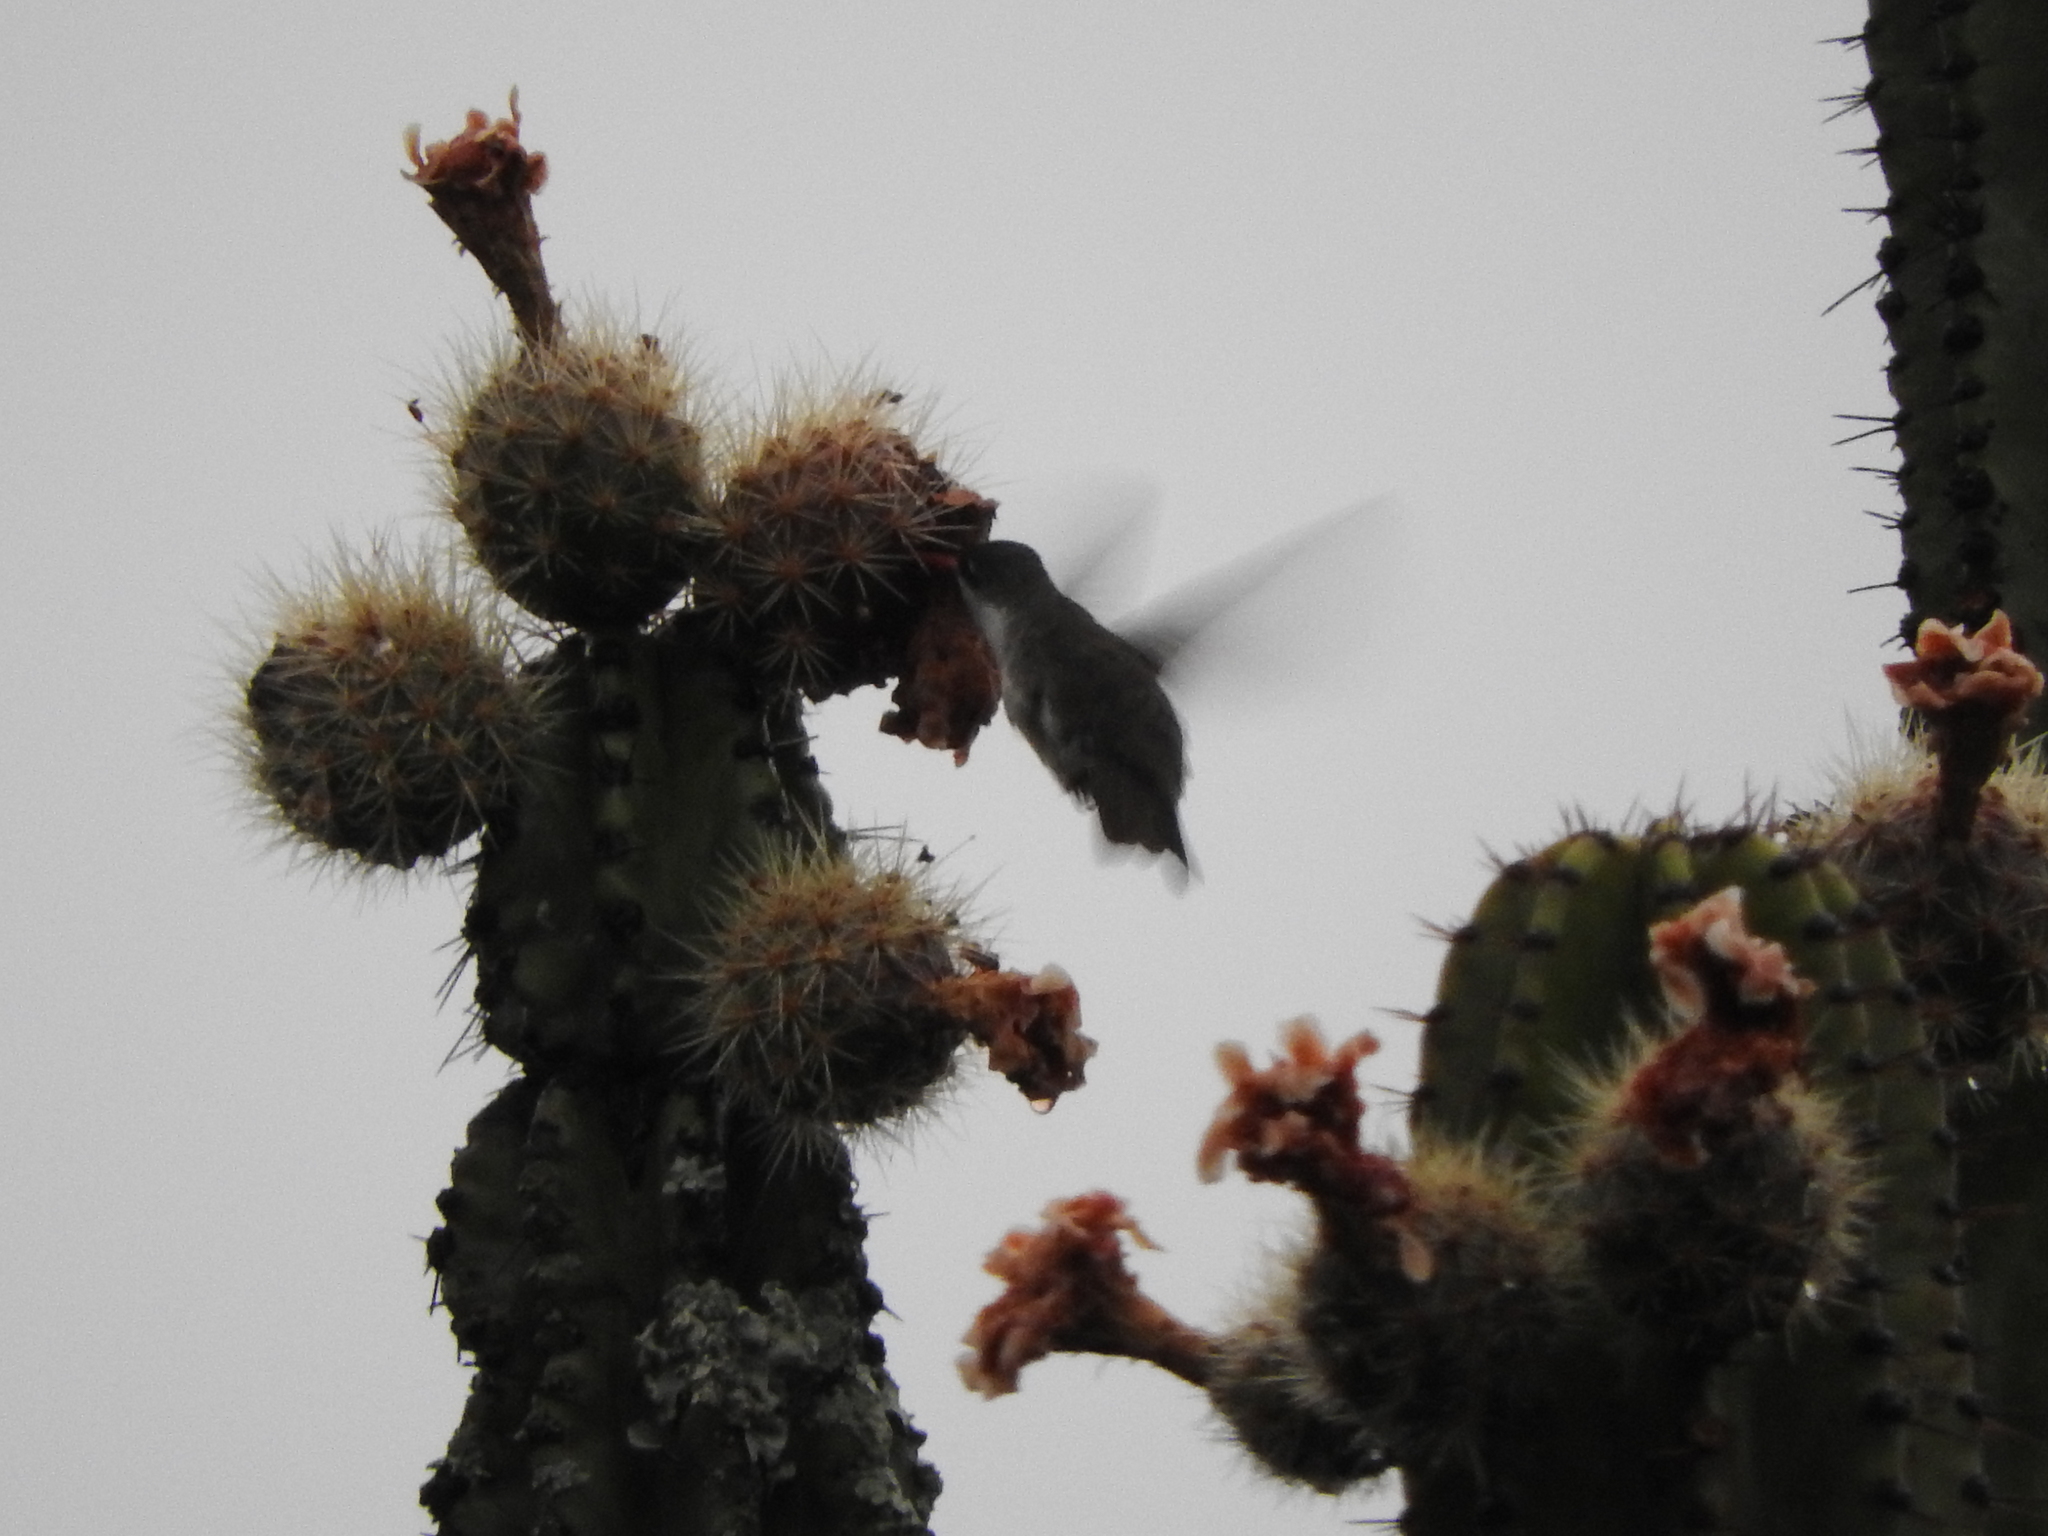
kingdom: Animalia
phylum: Chordata
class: Aves
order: Apodiformes
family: Trochilidae
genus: Leucolia
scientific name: Leucolia violiceps
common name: Violet-crowned hummingbird
